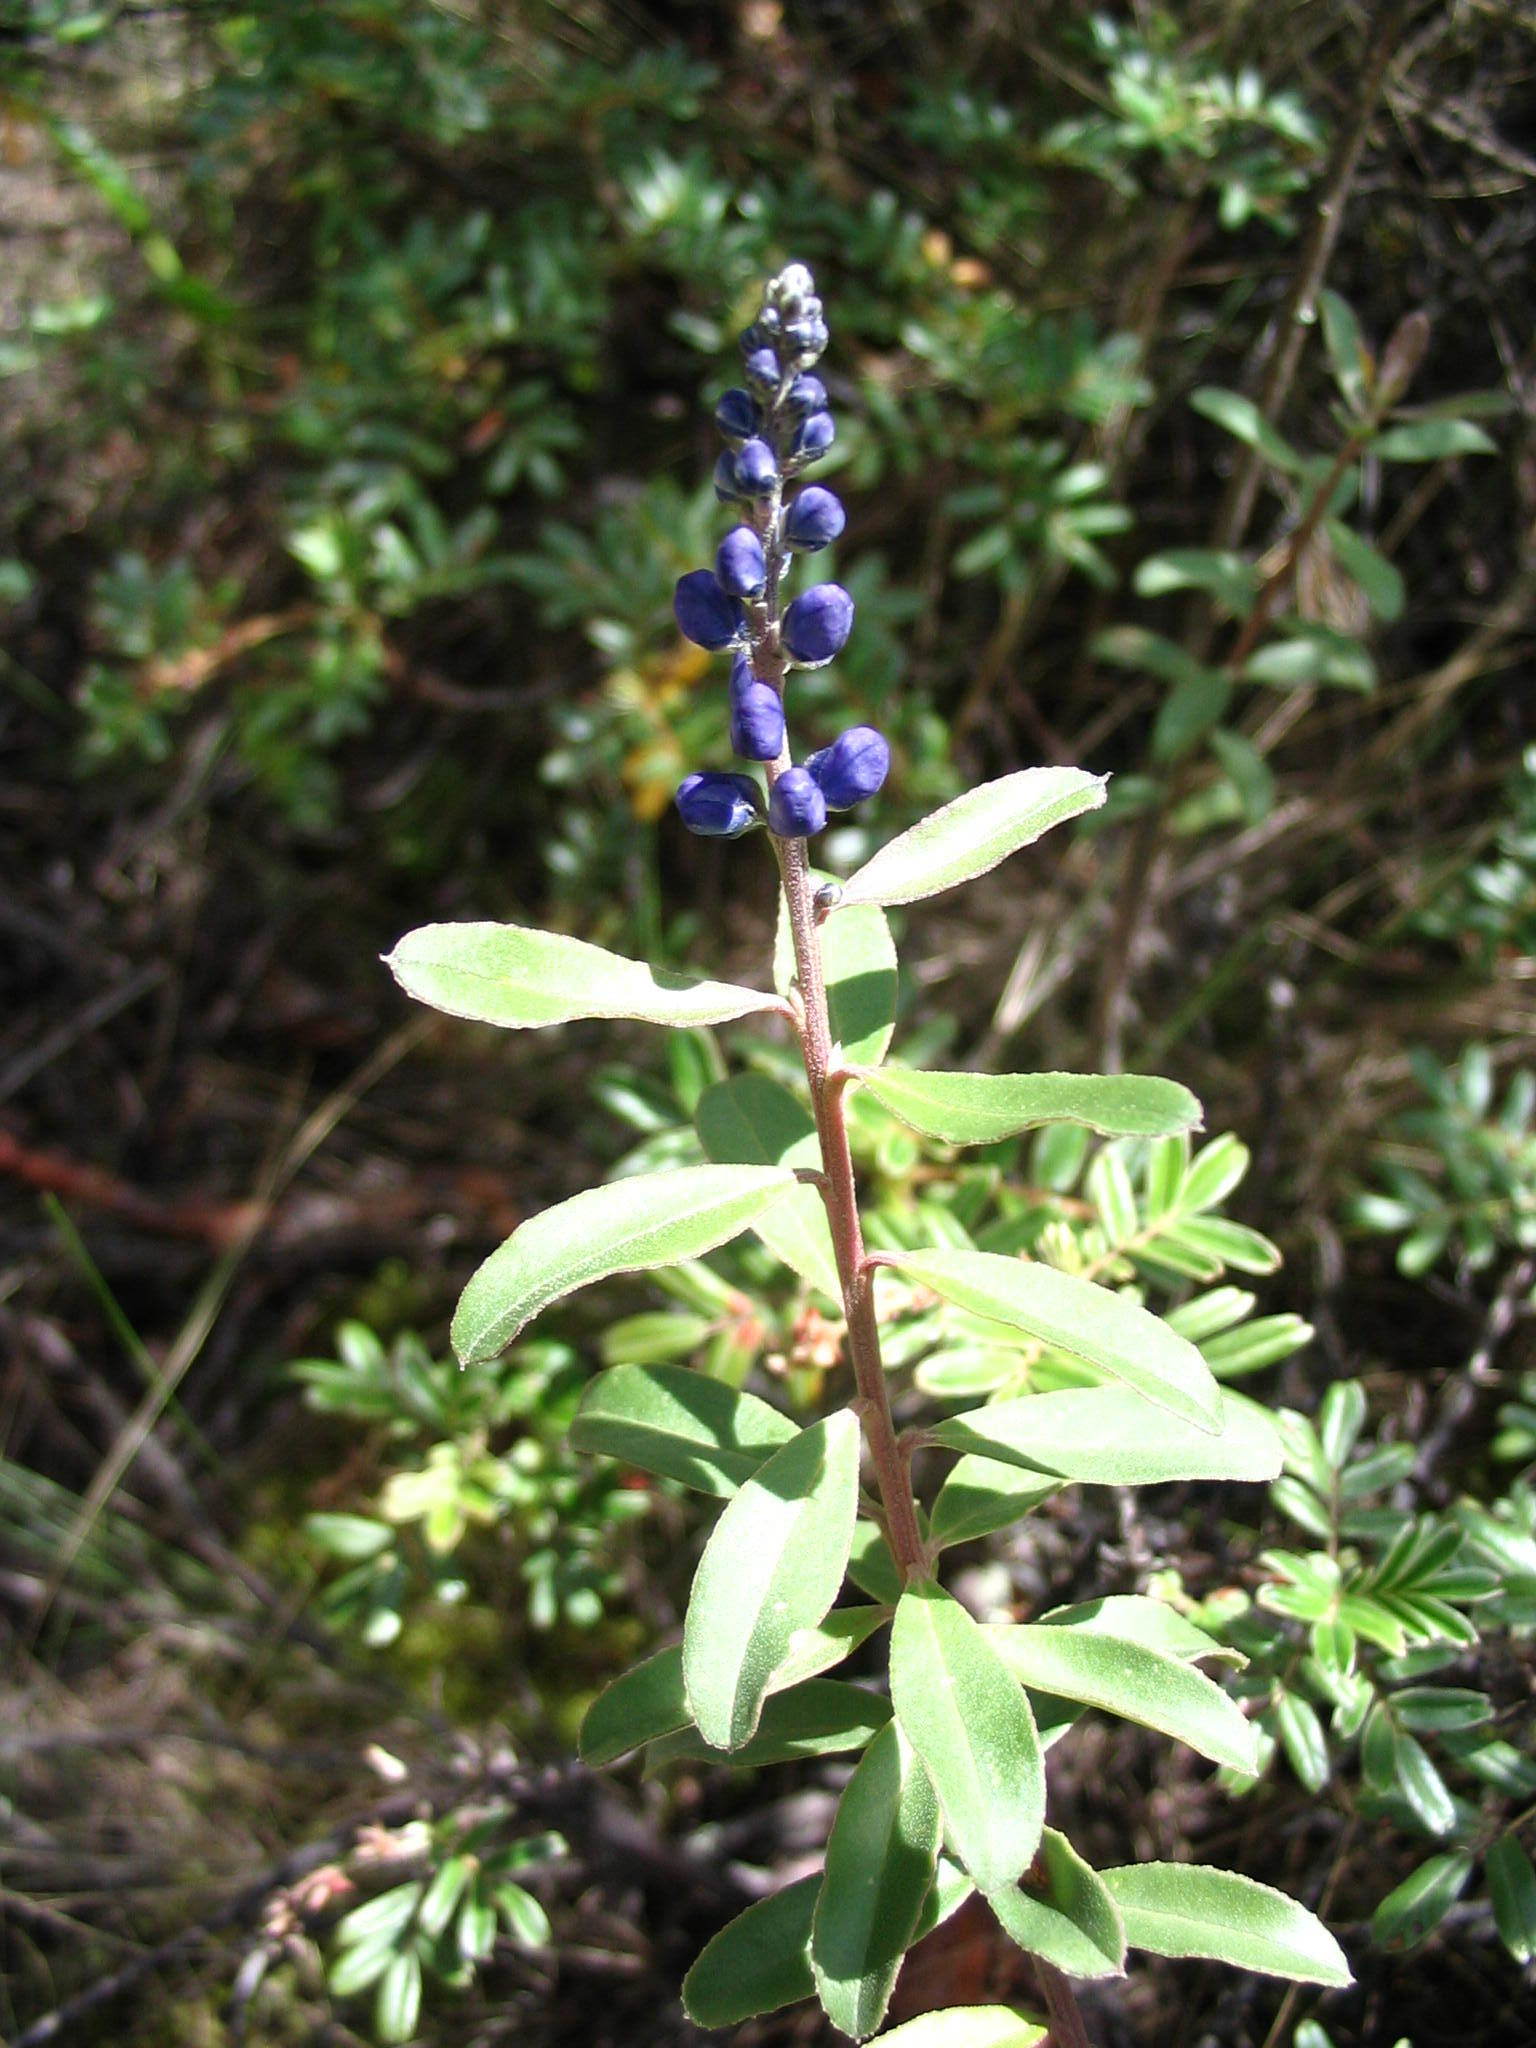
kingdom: Plantae
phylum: Tracheophyta
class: Magnoliopsida
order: Fabales
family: Polygalaceae
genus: Monnina
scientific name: Monnina salicifolia
